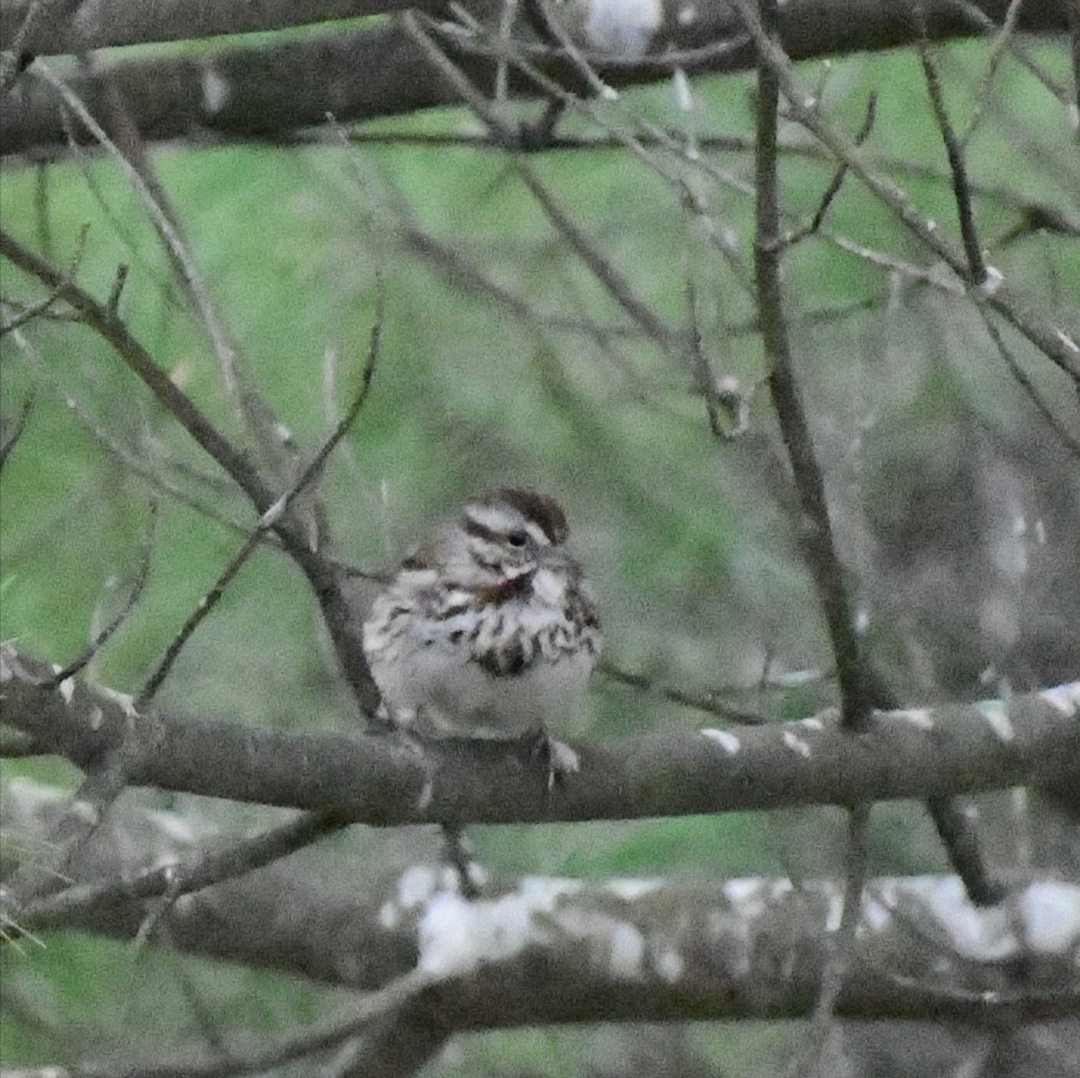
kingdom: Animalia
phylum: Chordata
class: Aves
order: Passeriformes
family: Passerellidae
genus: Melospiza
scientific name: Melospiza melodia
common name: Song sparrow
